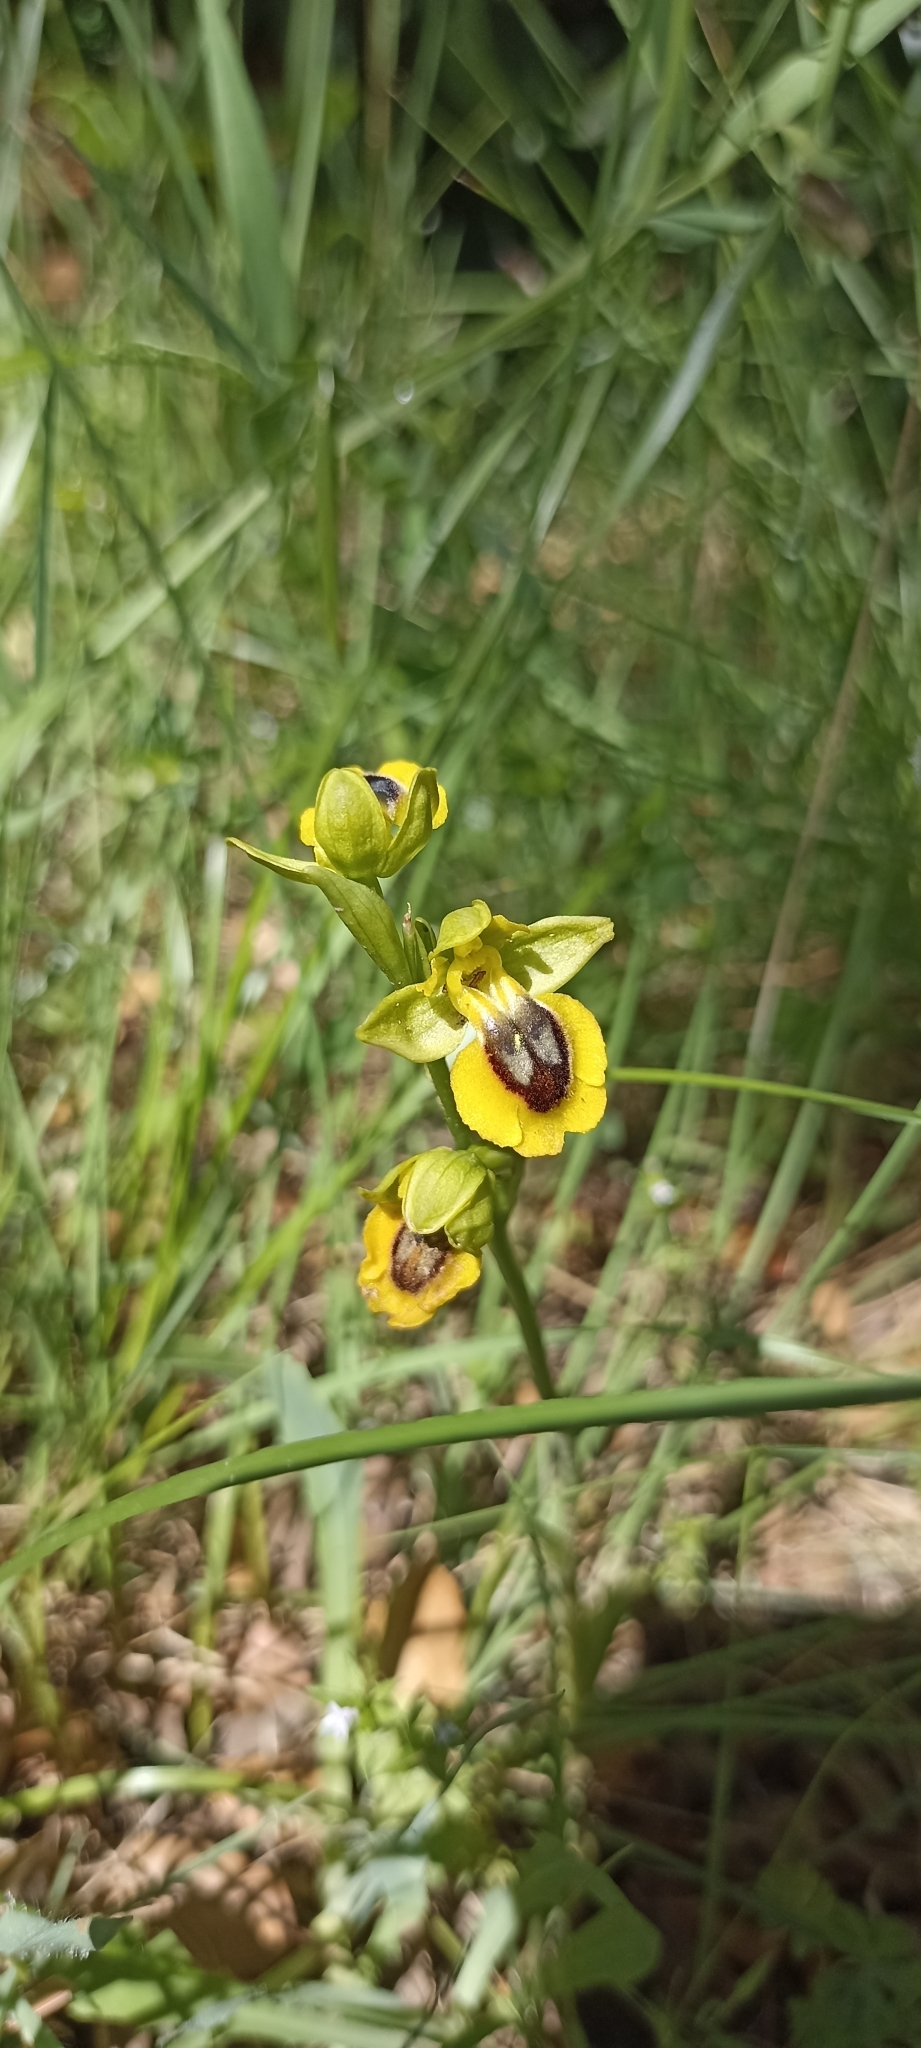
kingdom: Plantae
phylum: Tracheophyta
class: Liliopsida
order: Asparagales
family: Orchidaceae
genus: Ophrys
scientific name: Ophrys lutea
